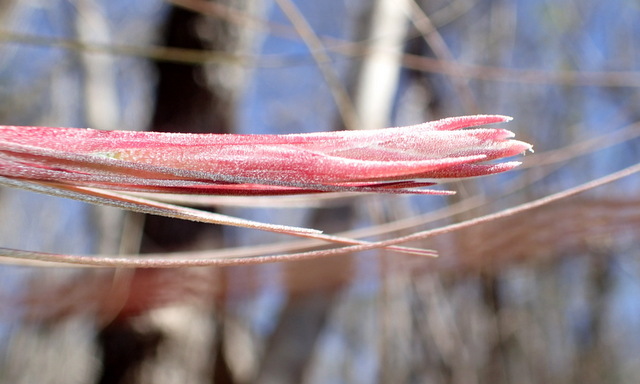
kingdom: Plantae
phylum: Tracheophyta
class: Liliopsida
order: Poales
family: Bromeliaceae
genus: Tillandsia
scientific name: Tillandsia bartramii
